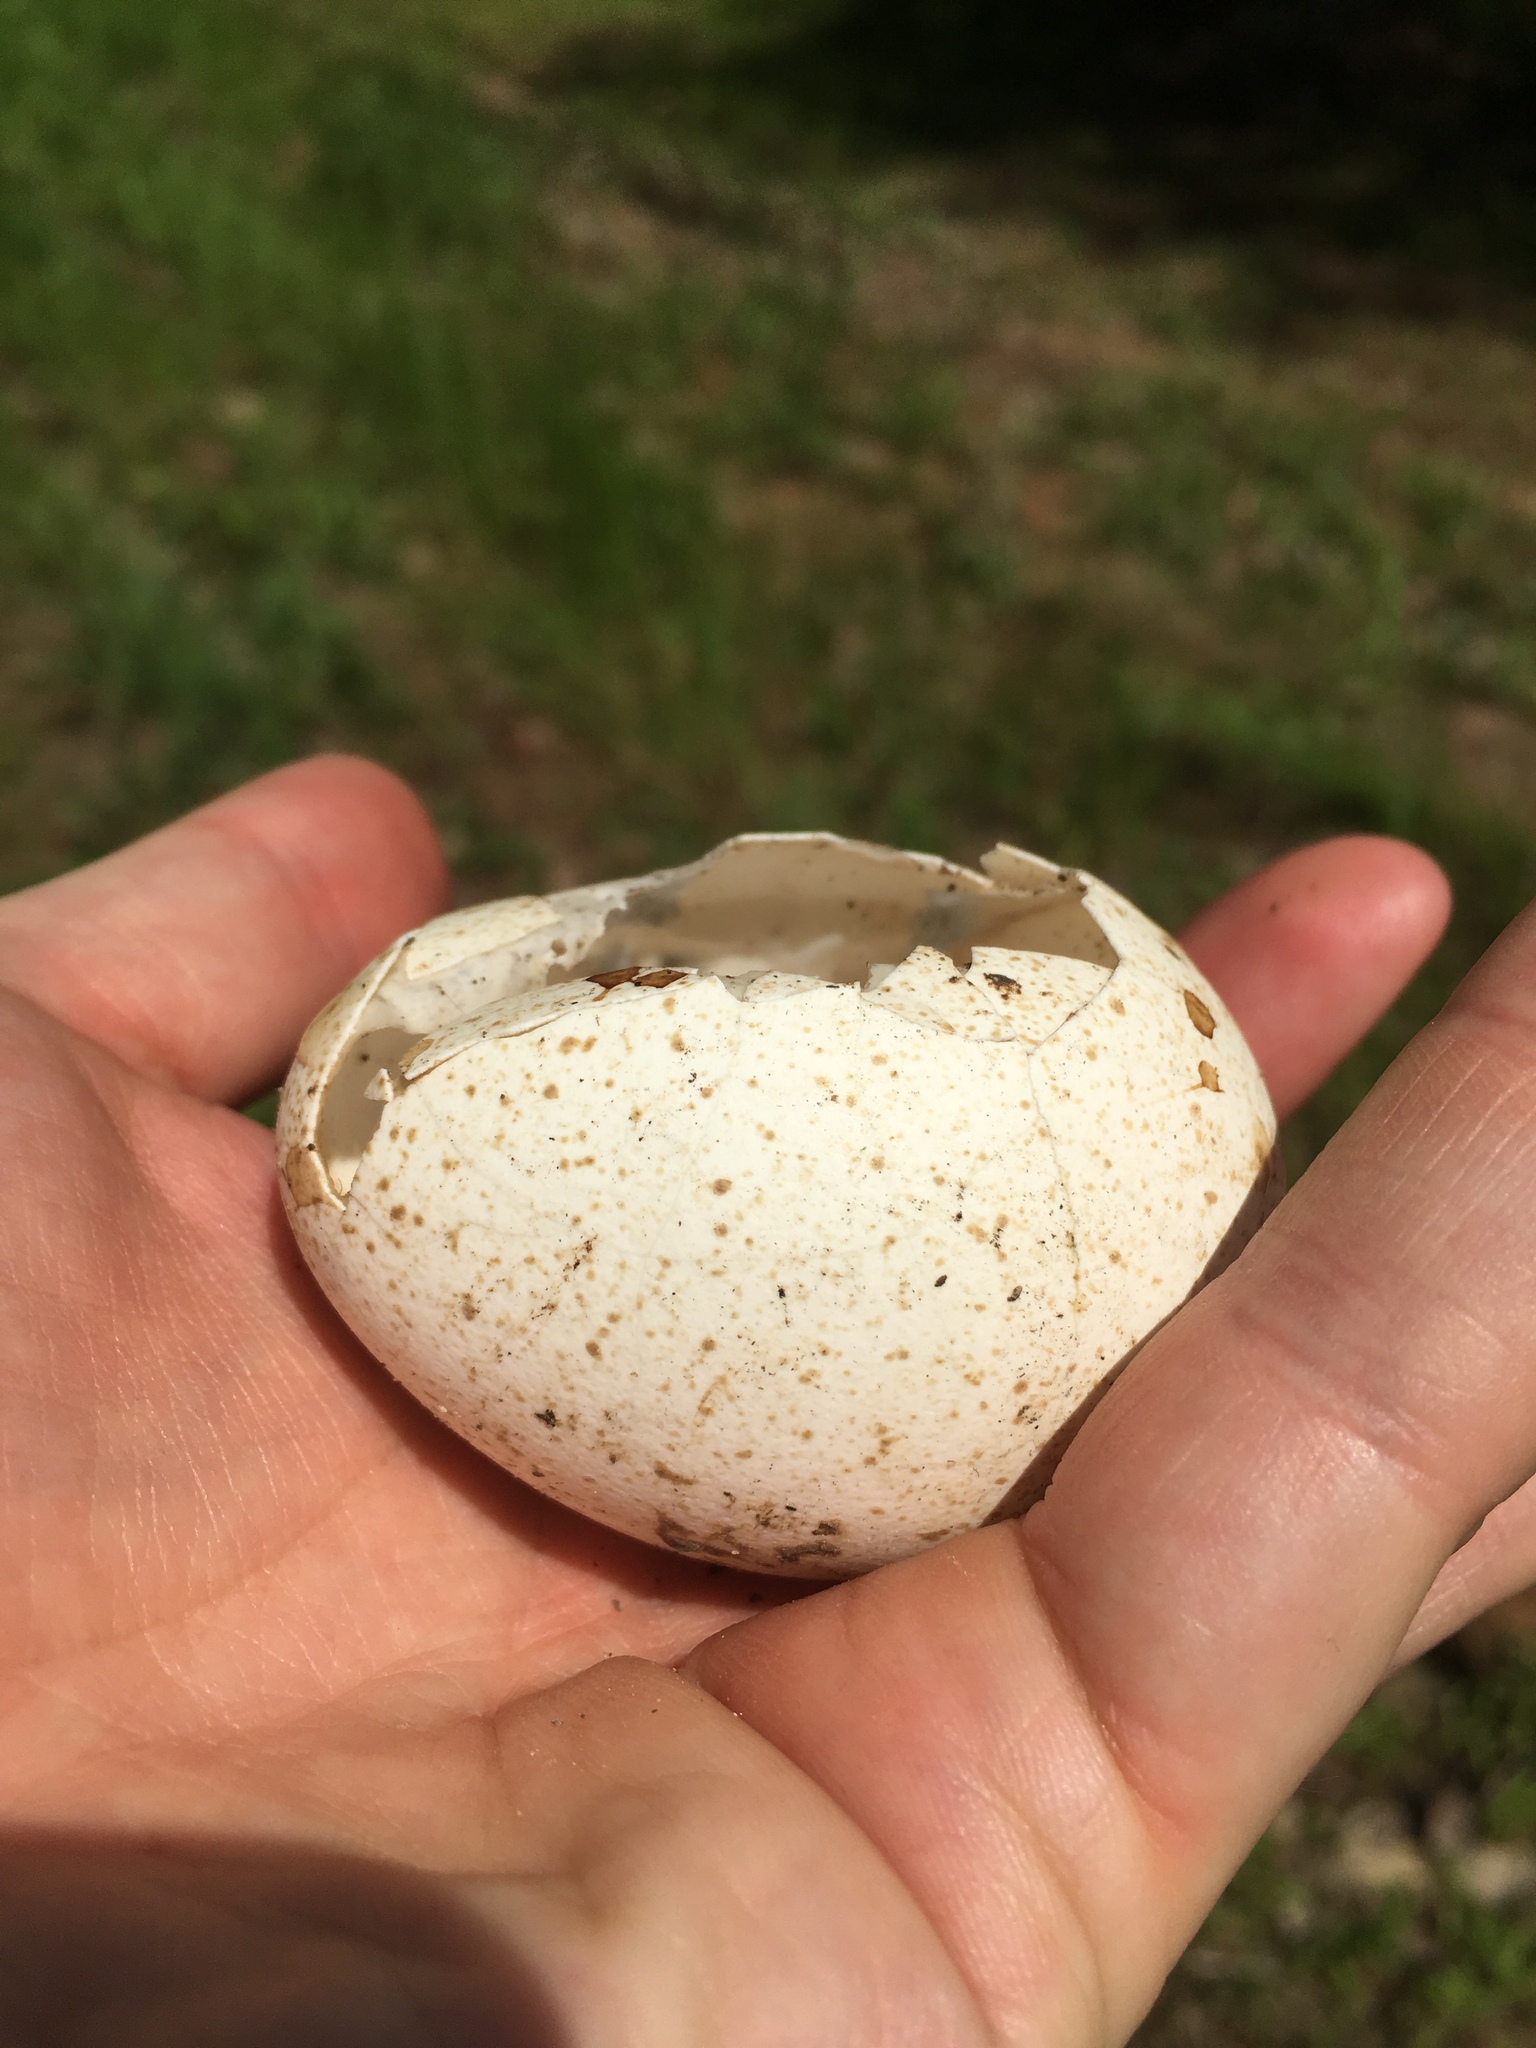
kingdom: Animalia
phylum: Chordata
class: Aves
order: Galliformes
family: Phasianidae
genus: Meleagris
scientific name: Meleagris gallopavo
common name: Wild turkey
